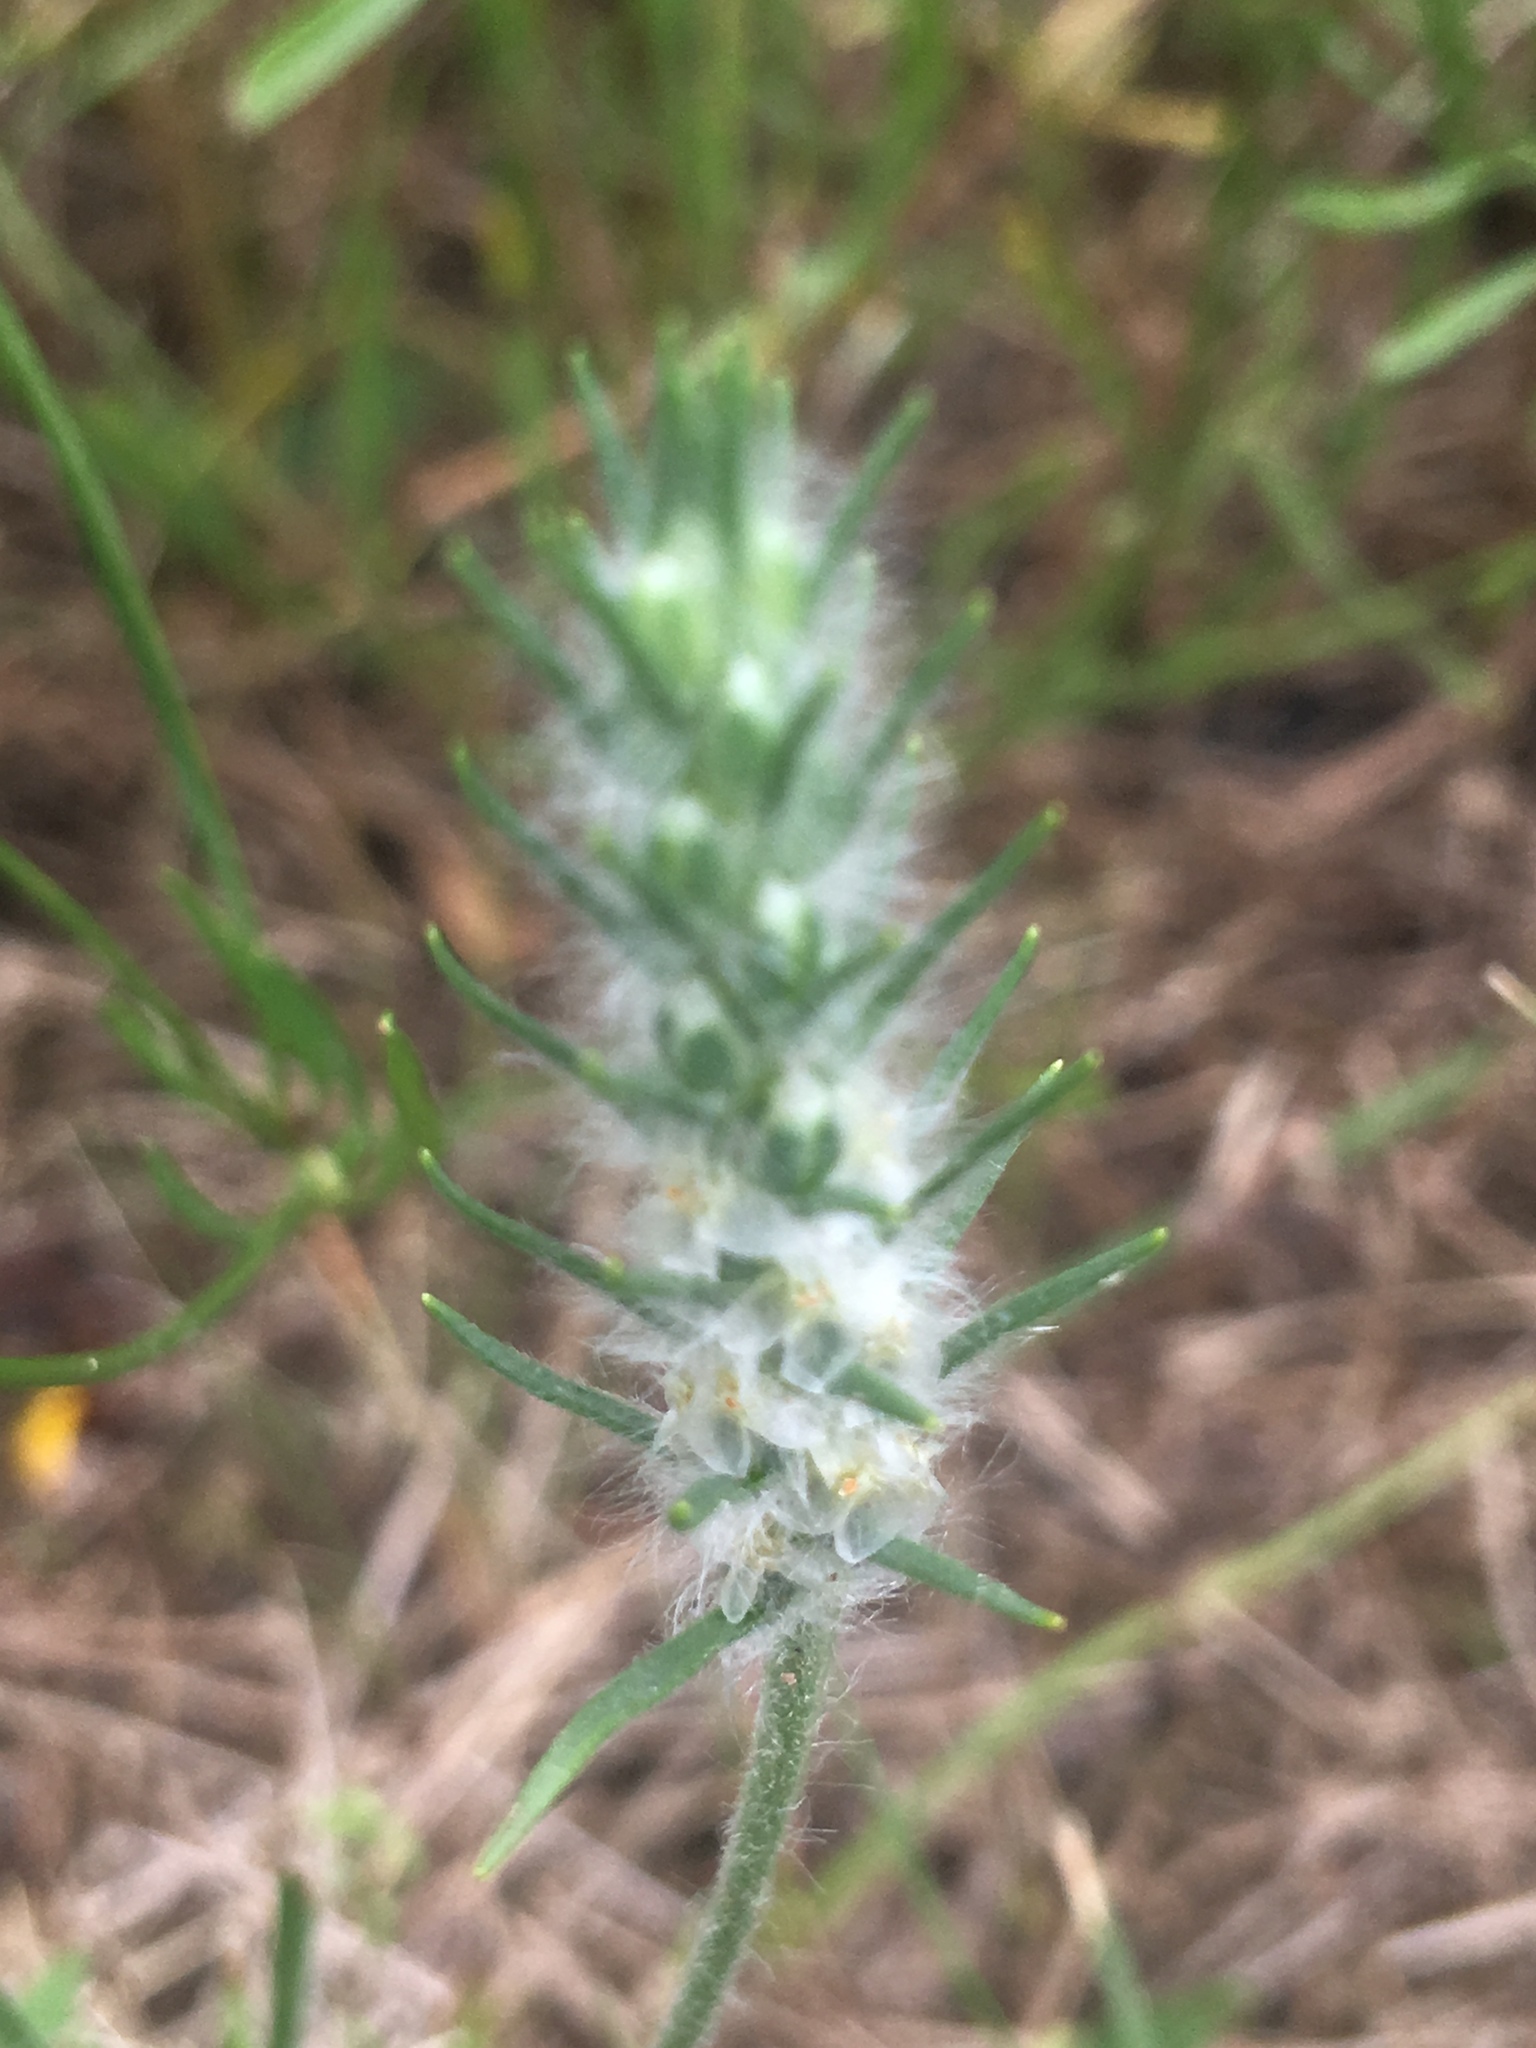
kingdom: Plantae
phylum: Tracheophyta
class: Magnoliopsida
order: Lamiales
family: Plantaginaceae
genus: Plantago
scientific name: Plantago aristata
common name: Bracted plantain
